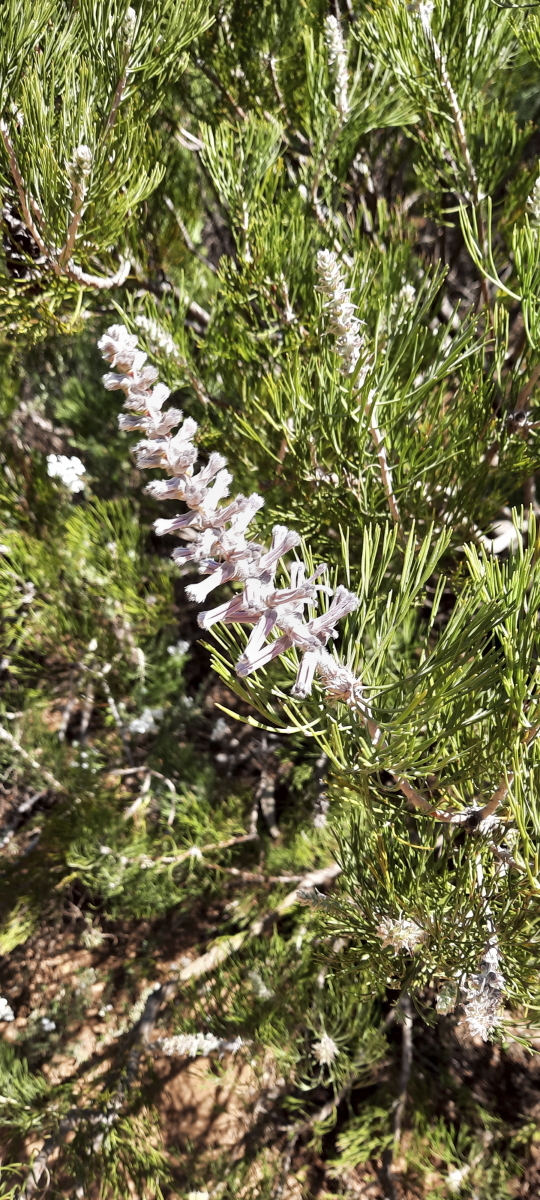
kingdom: Plantae
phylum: Tracheophyta
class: Magnoliopsida
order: Proteales
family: Proteaceae
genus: Paranomus
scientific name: Paranomus bracteolaris
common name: Bokkeveld tree sceptre
